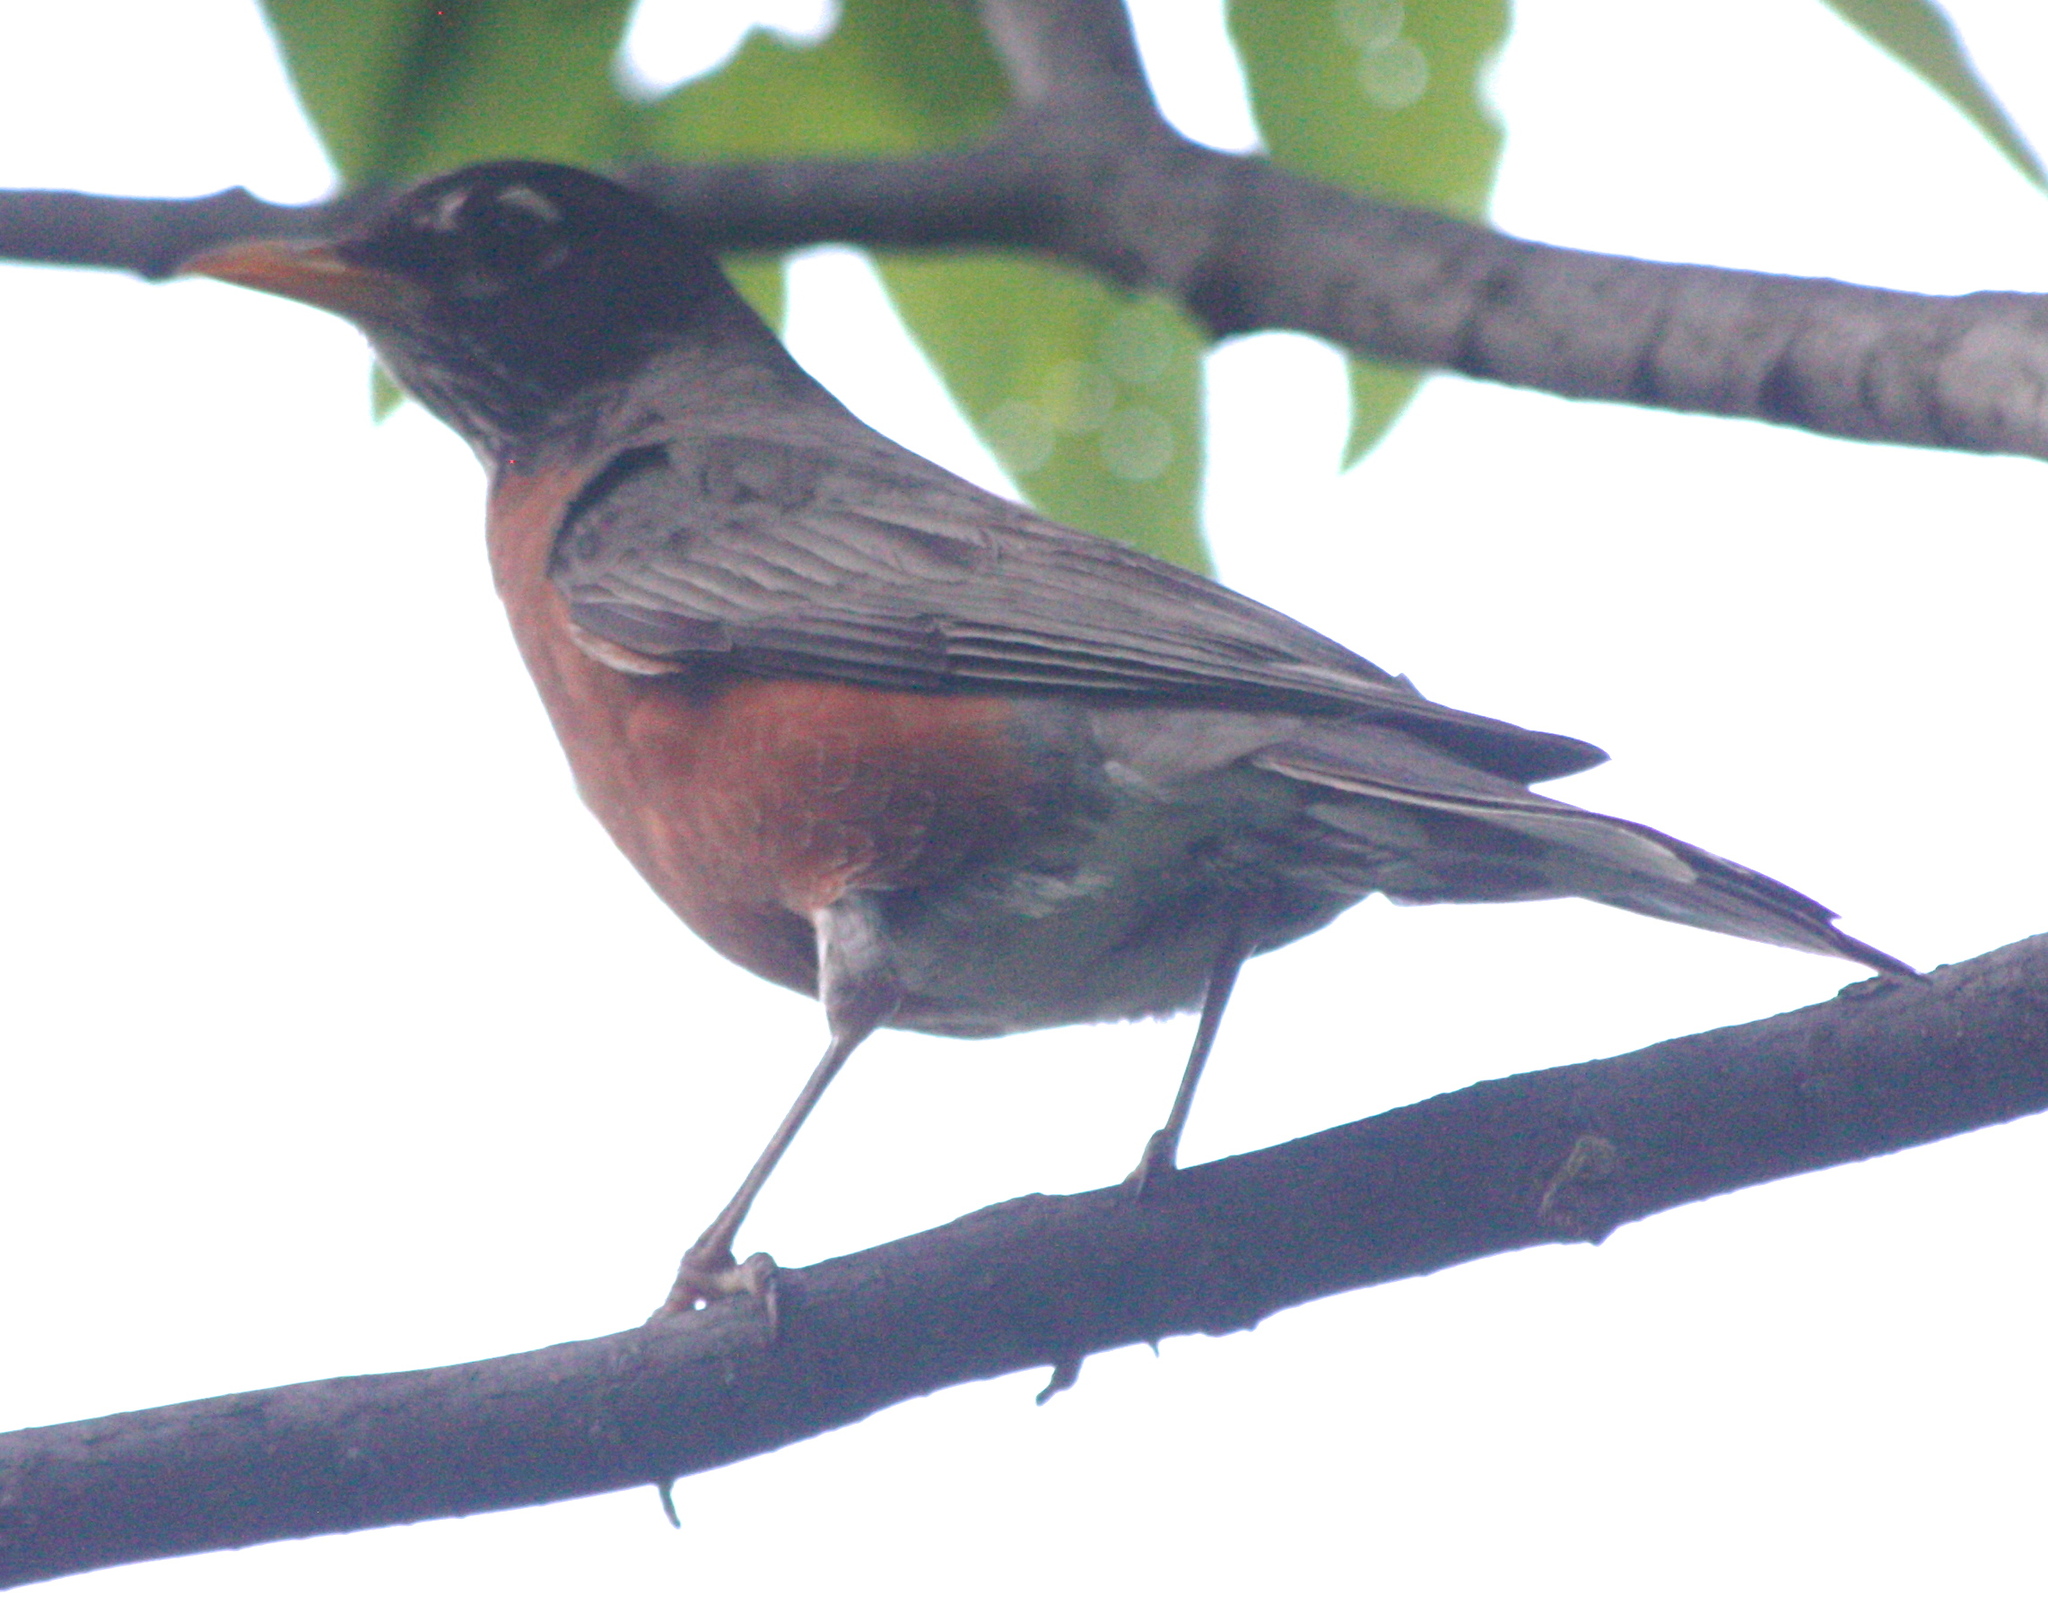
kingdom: Animalia
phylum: Chordata
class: Aves
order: Passeriformes
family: Turdidae
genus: Turdus
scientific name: Turdus migratorius
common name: American robin
